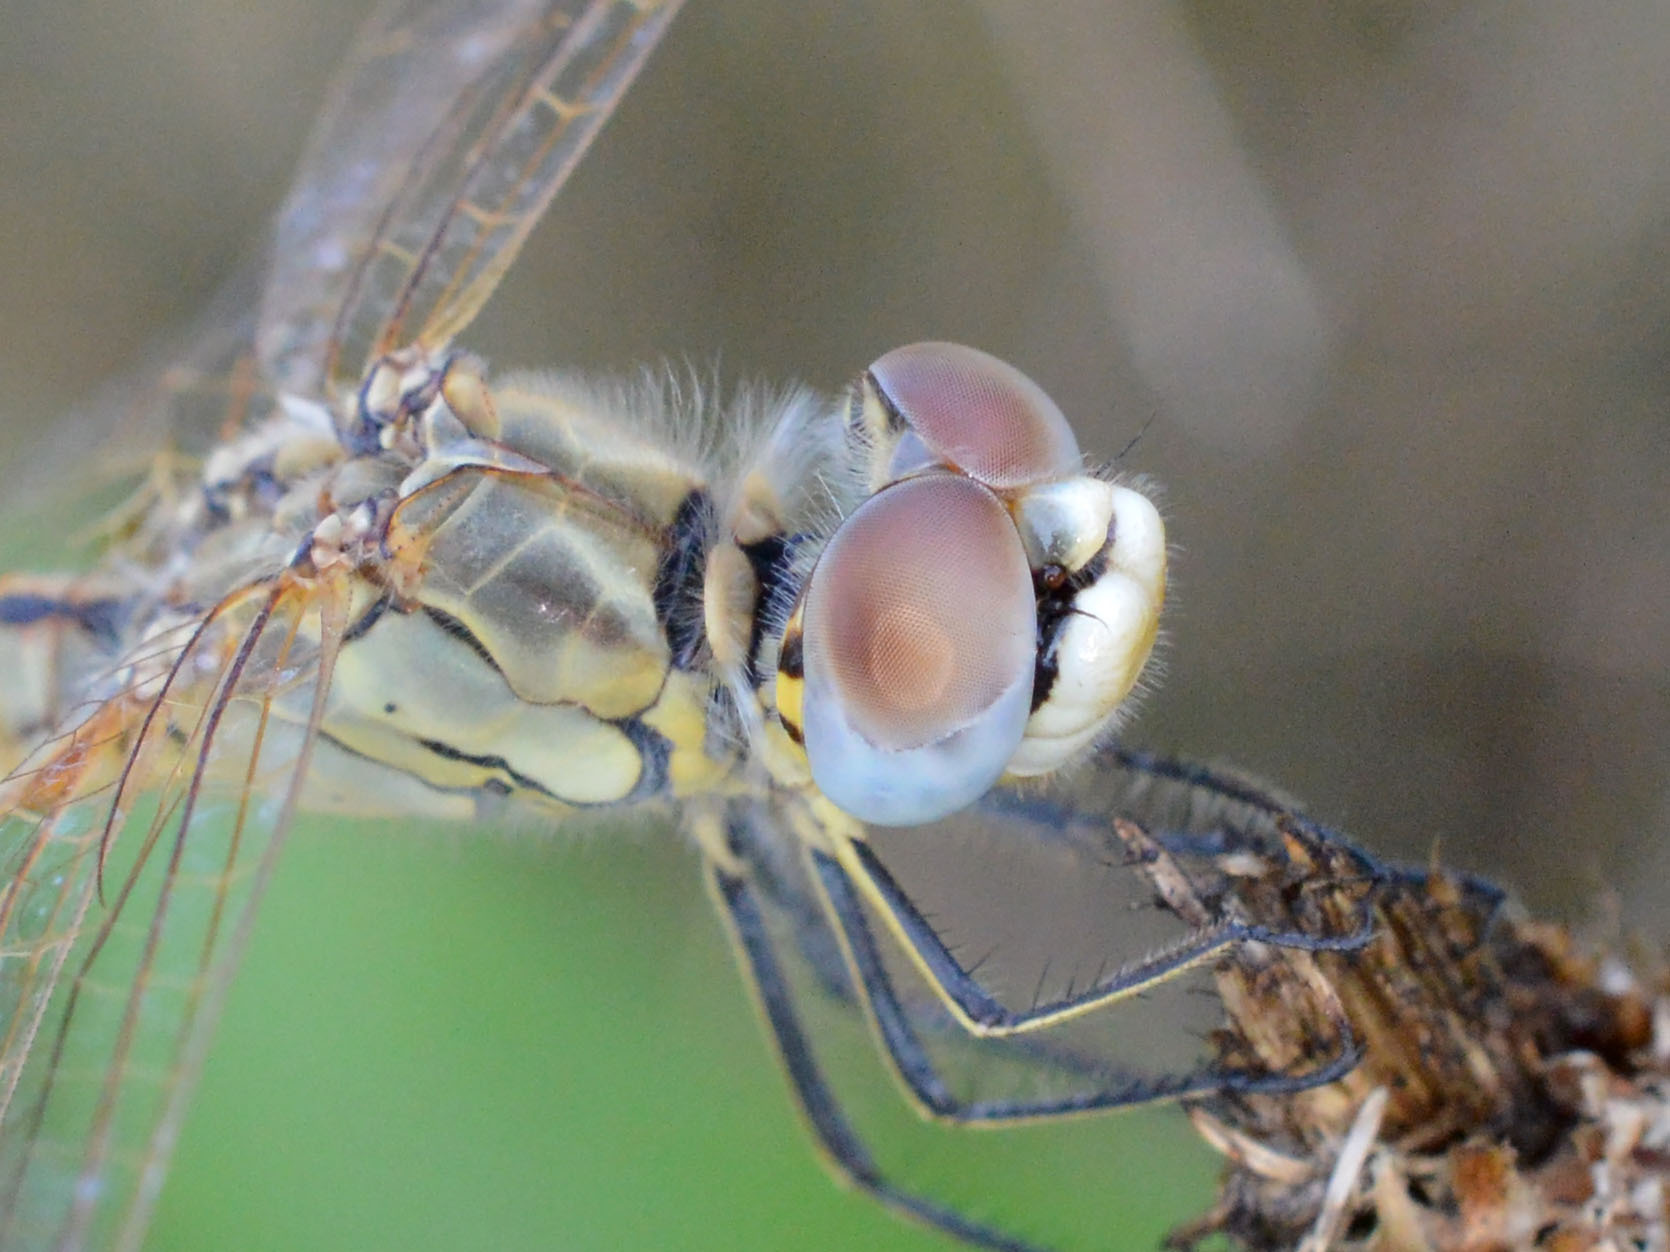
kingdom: Animalia
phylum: Arthropoda
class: Insecta
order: Odonata
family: Libellulidae
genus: Sympetrum
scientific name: Sympetrum fonscolombii
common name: Red-veined darter
